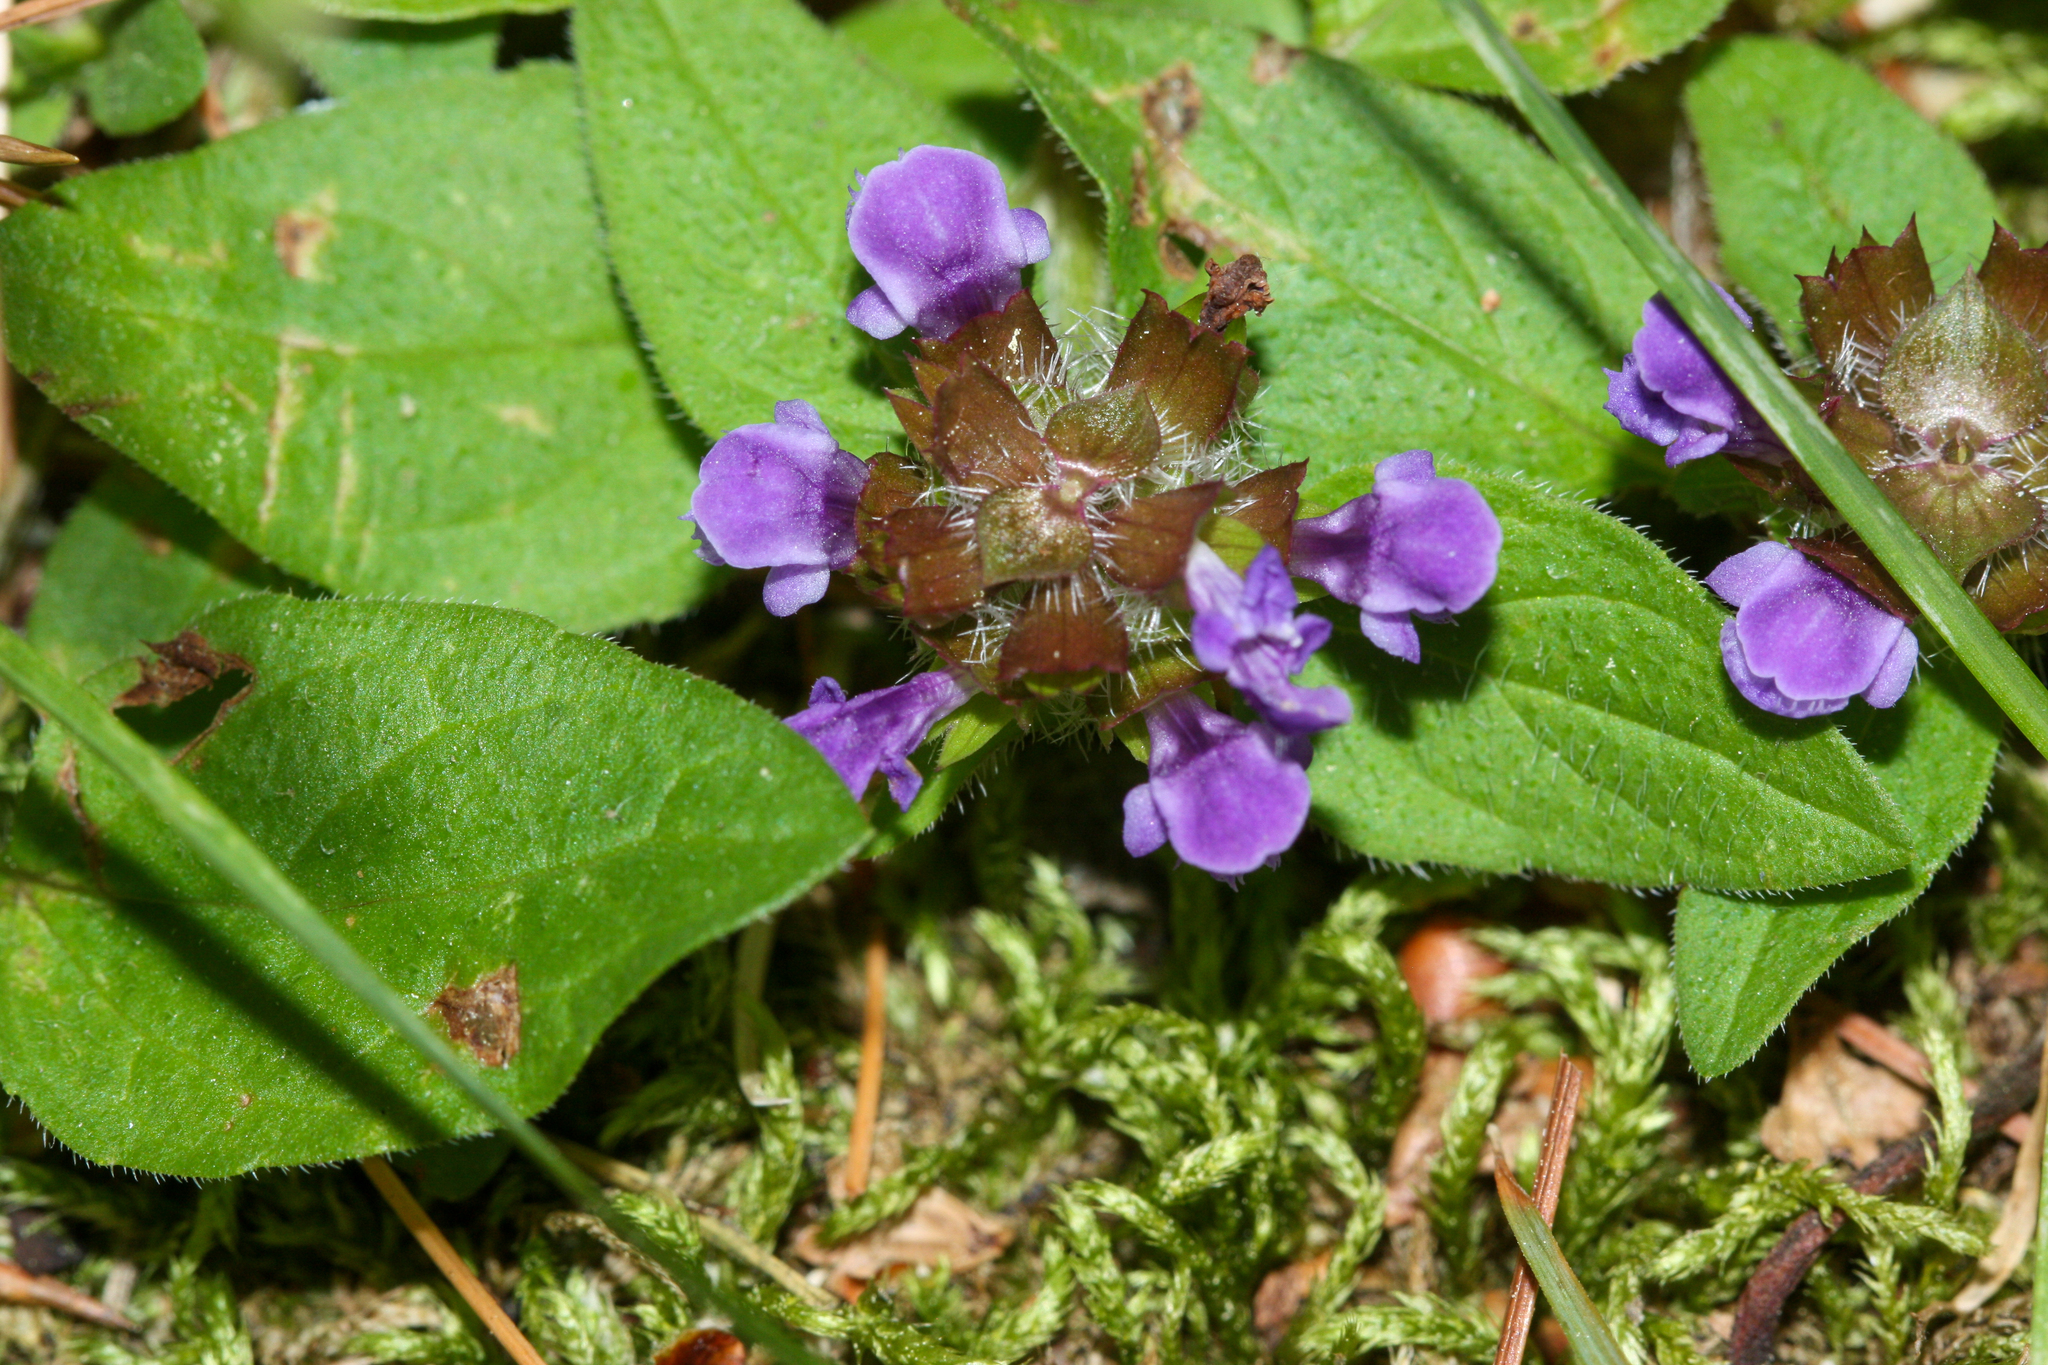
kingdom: Plantae
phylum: Tracheophyta
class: Magnoliopsida
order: Lamiales
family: Lamiaceae
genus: Prunella
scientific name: Prunella vulgaris
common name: Heal-all
